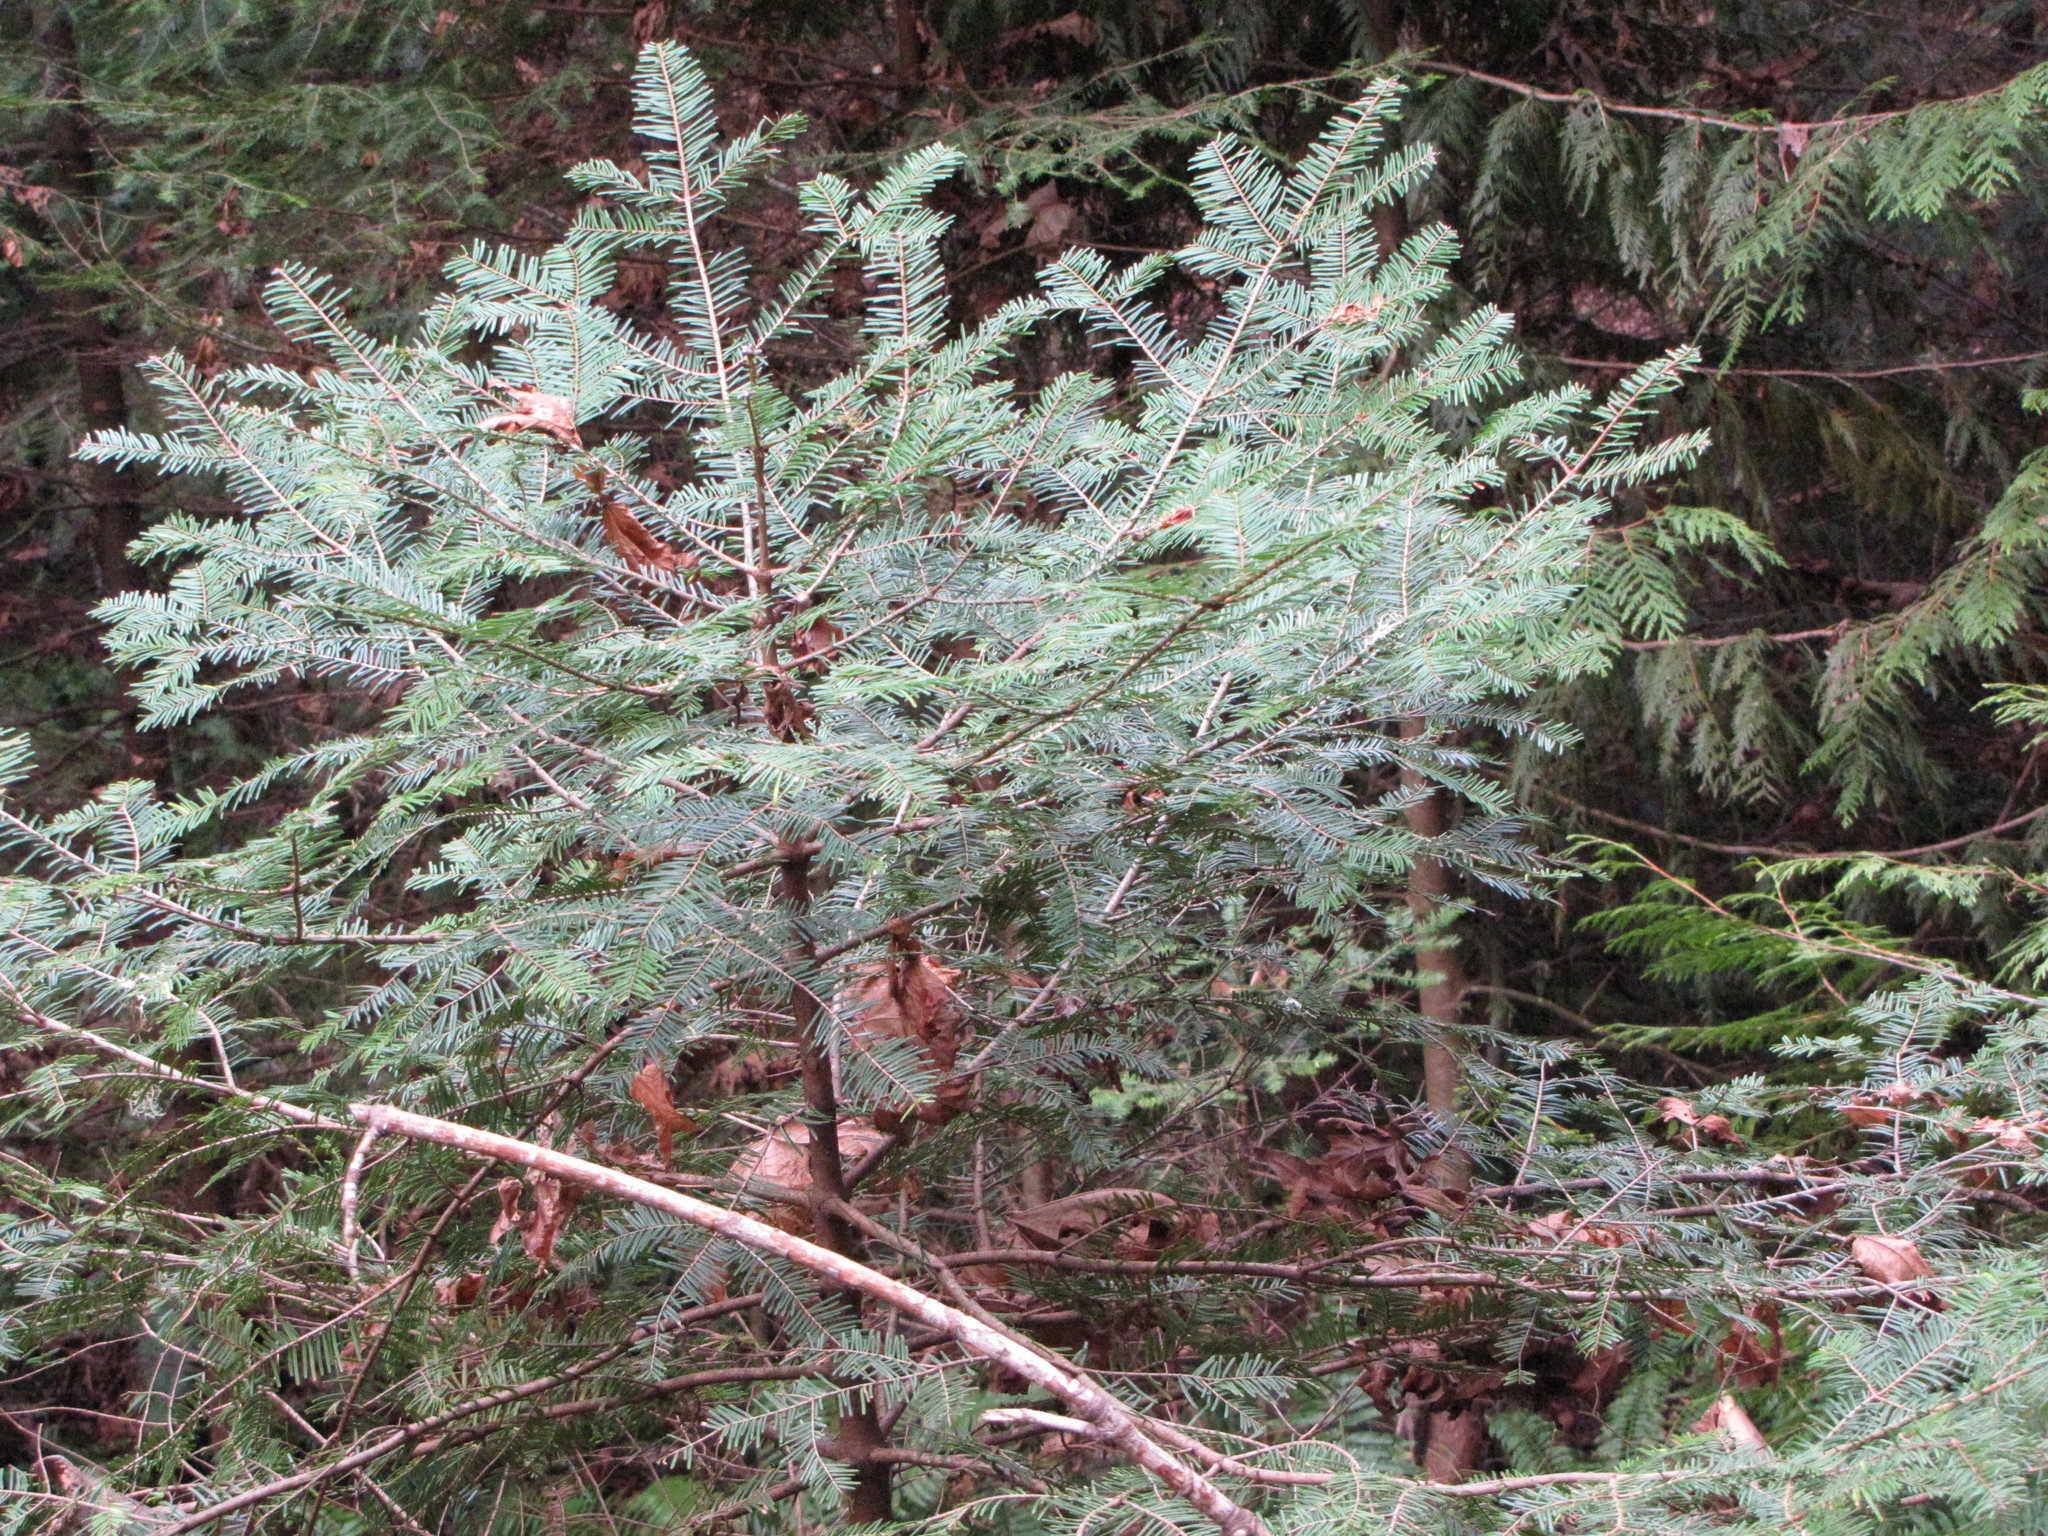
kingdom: Plantae
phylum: Tracheophyta
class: Pinopsida
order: Pinales
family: Pinaceae
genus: Abies
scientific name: Abies grandis
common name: Giant fir
